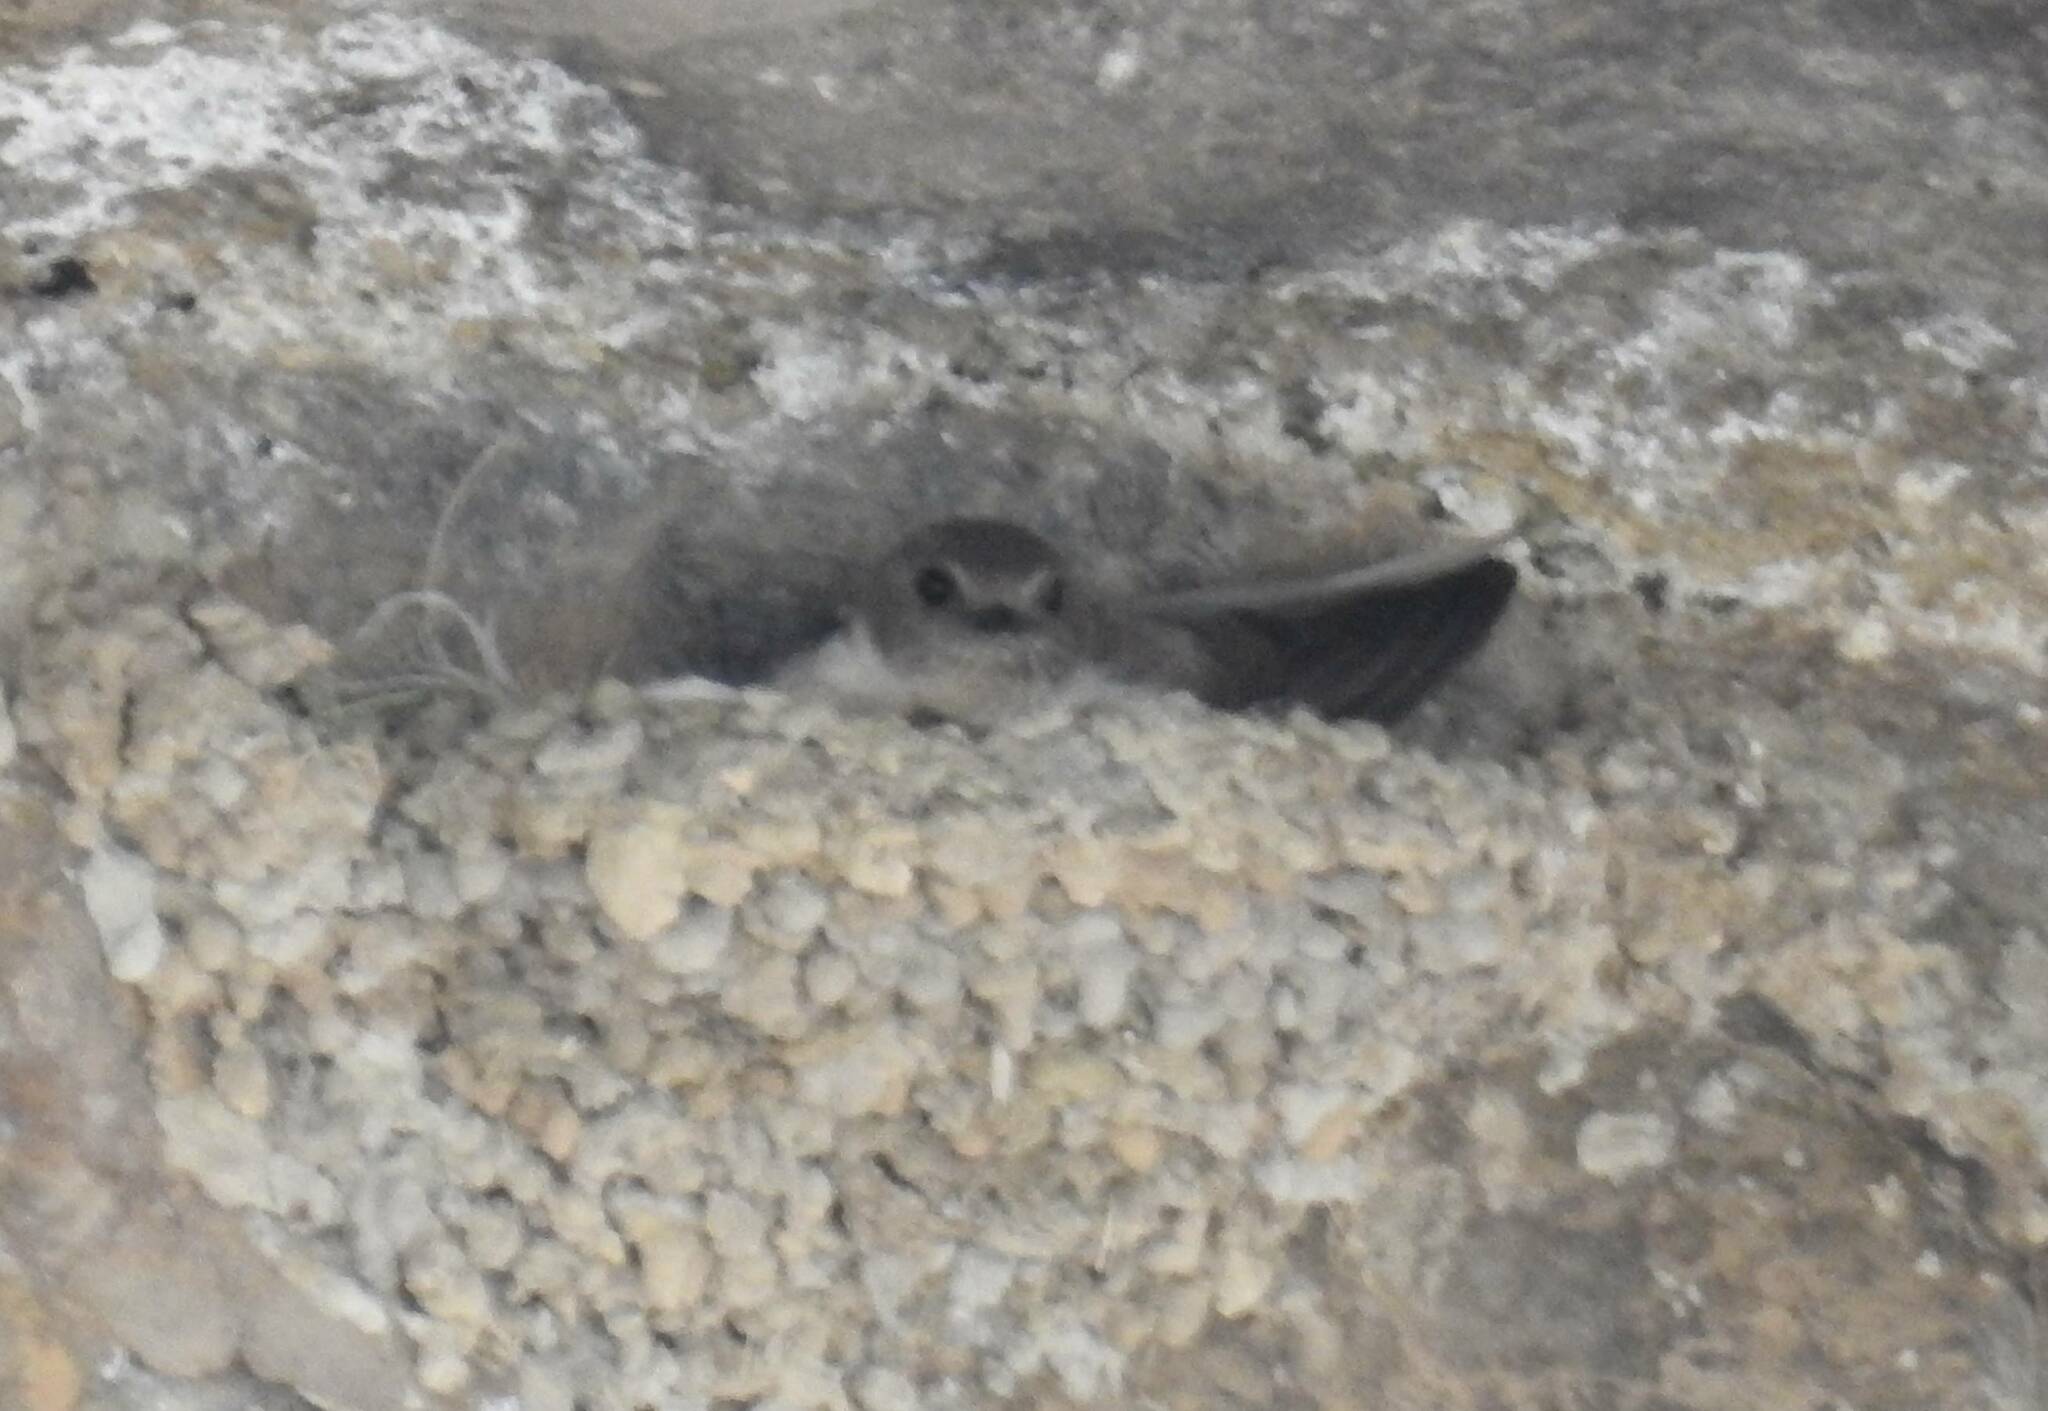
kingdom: Animalia
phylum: Chordata
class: Aves
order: Passeriformes
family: Hirundinidae
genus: Ptyonoprogne
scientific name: Ptyonoprogne rupestris
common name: Eurasian crag martin
